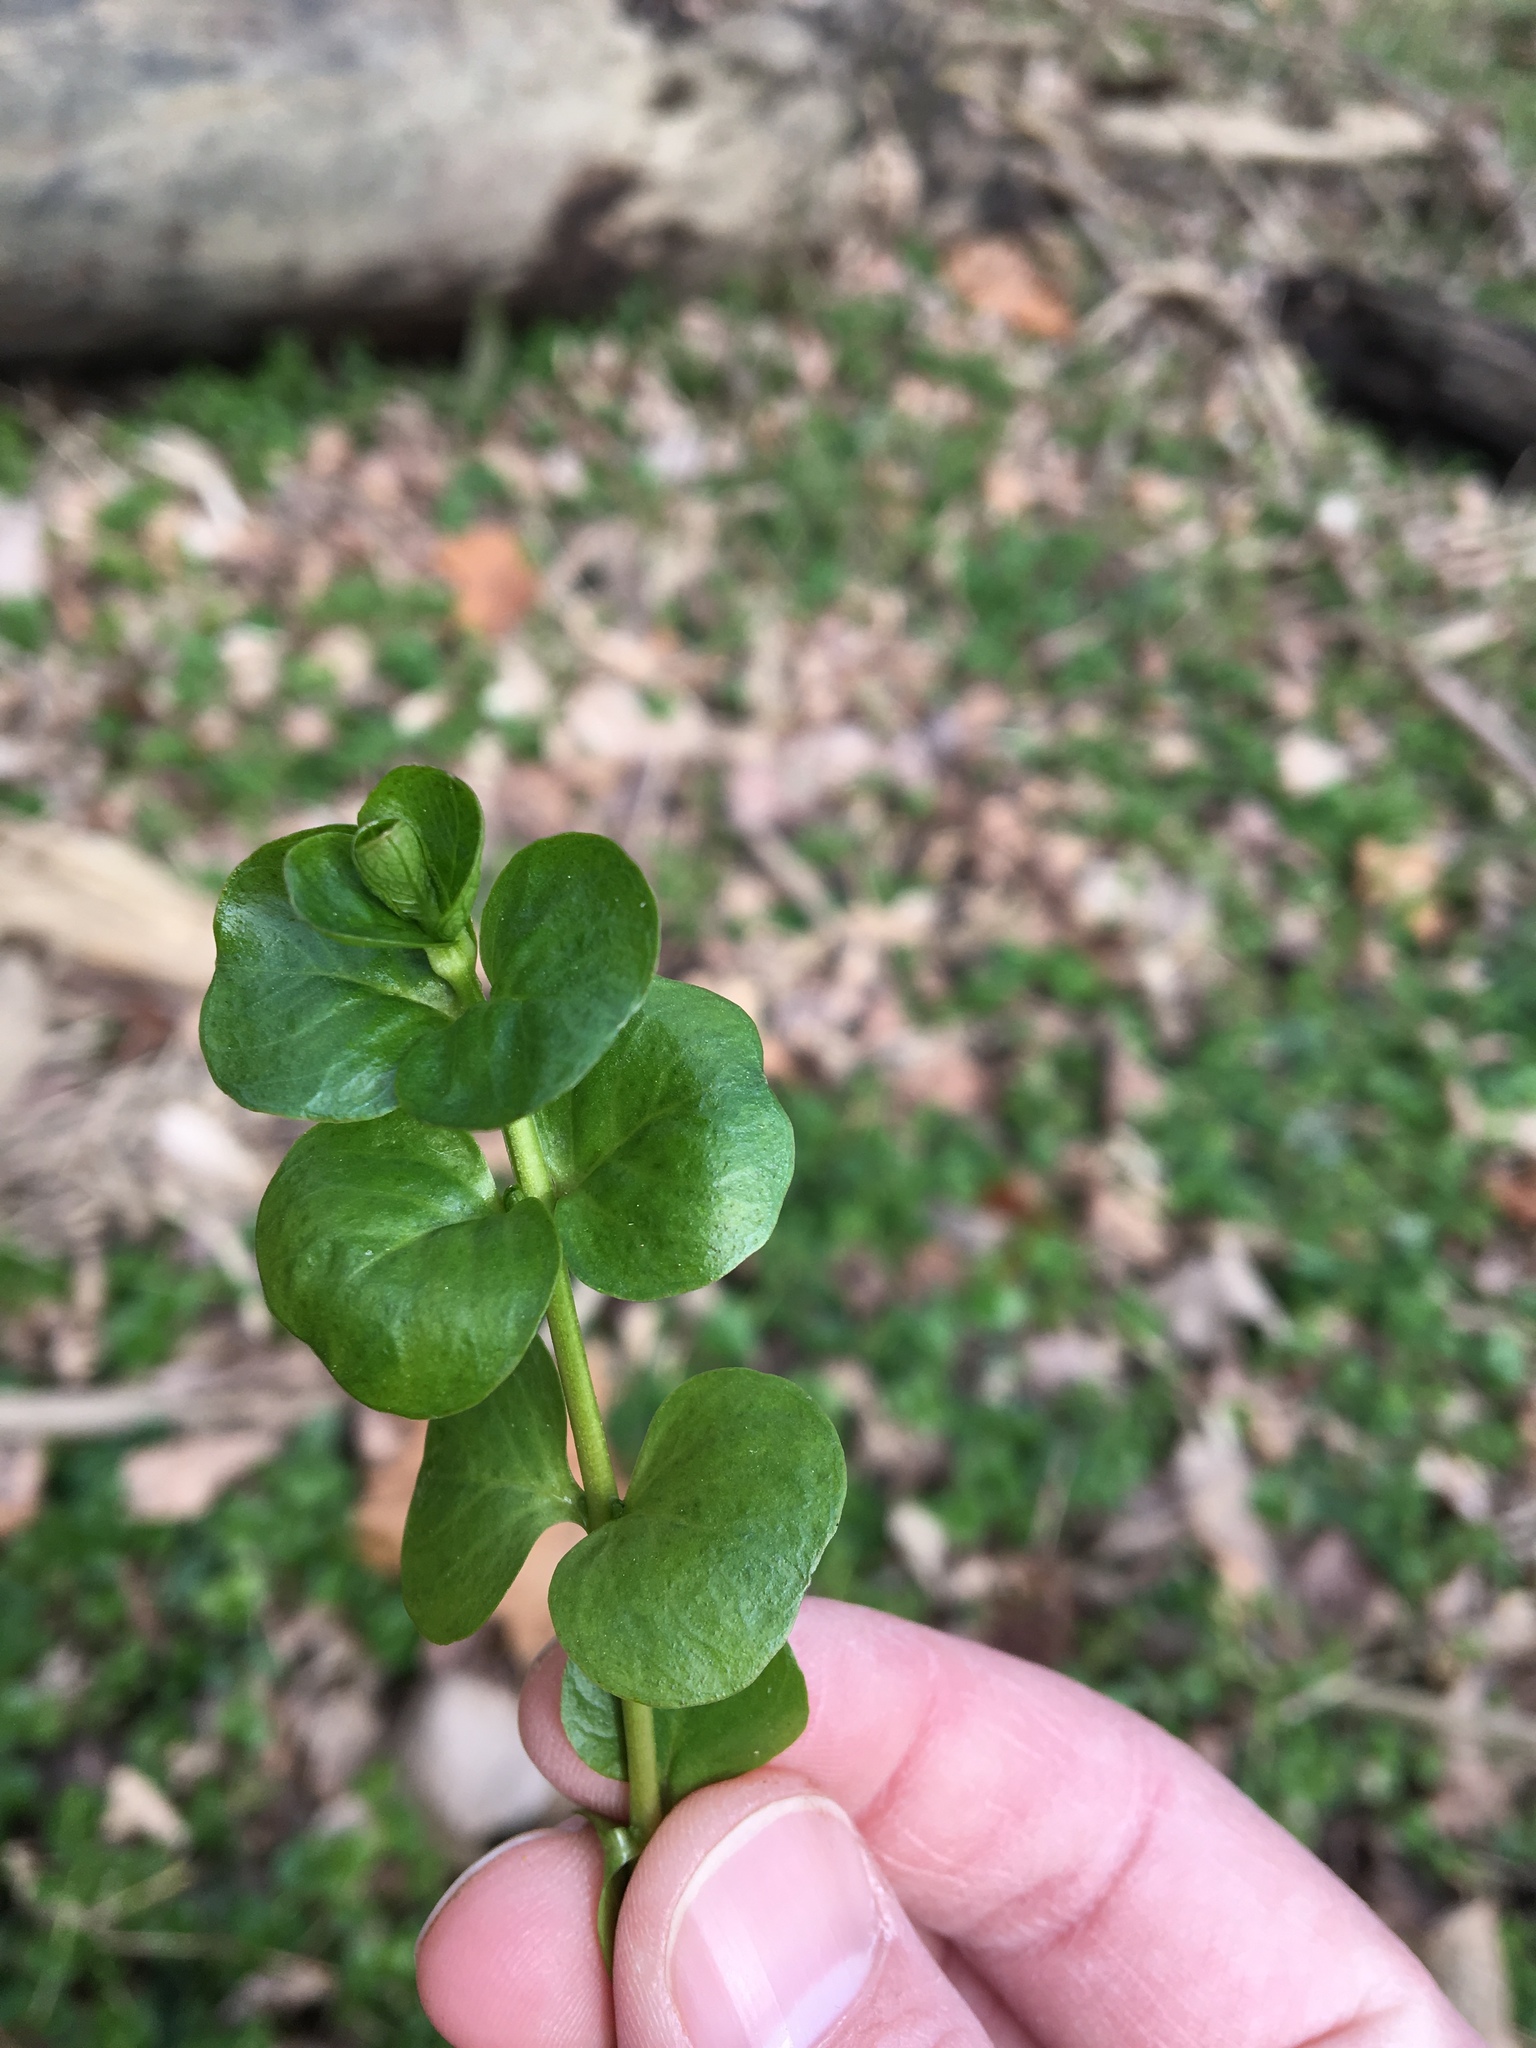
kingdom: Plantae
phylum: Tracheophyta
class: Magnoliopsida
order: Ericales
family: Primulaceae
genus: Lysimachia
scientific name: Lysimachia nummularia
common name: Moneywort
